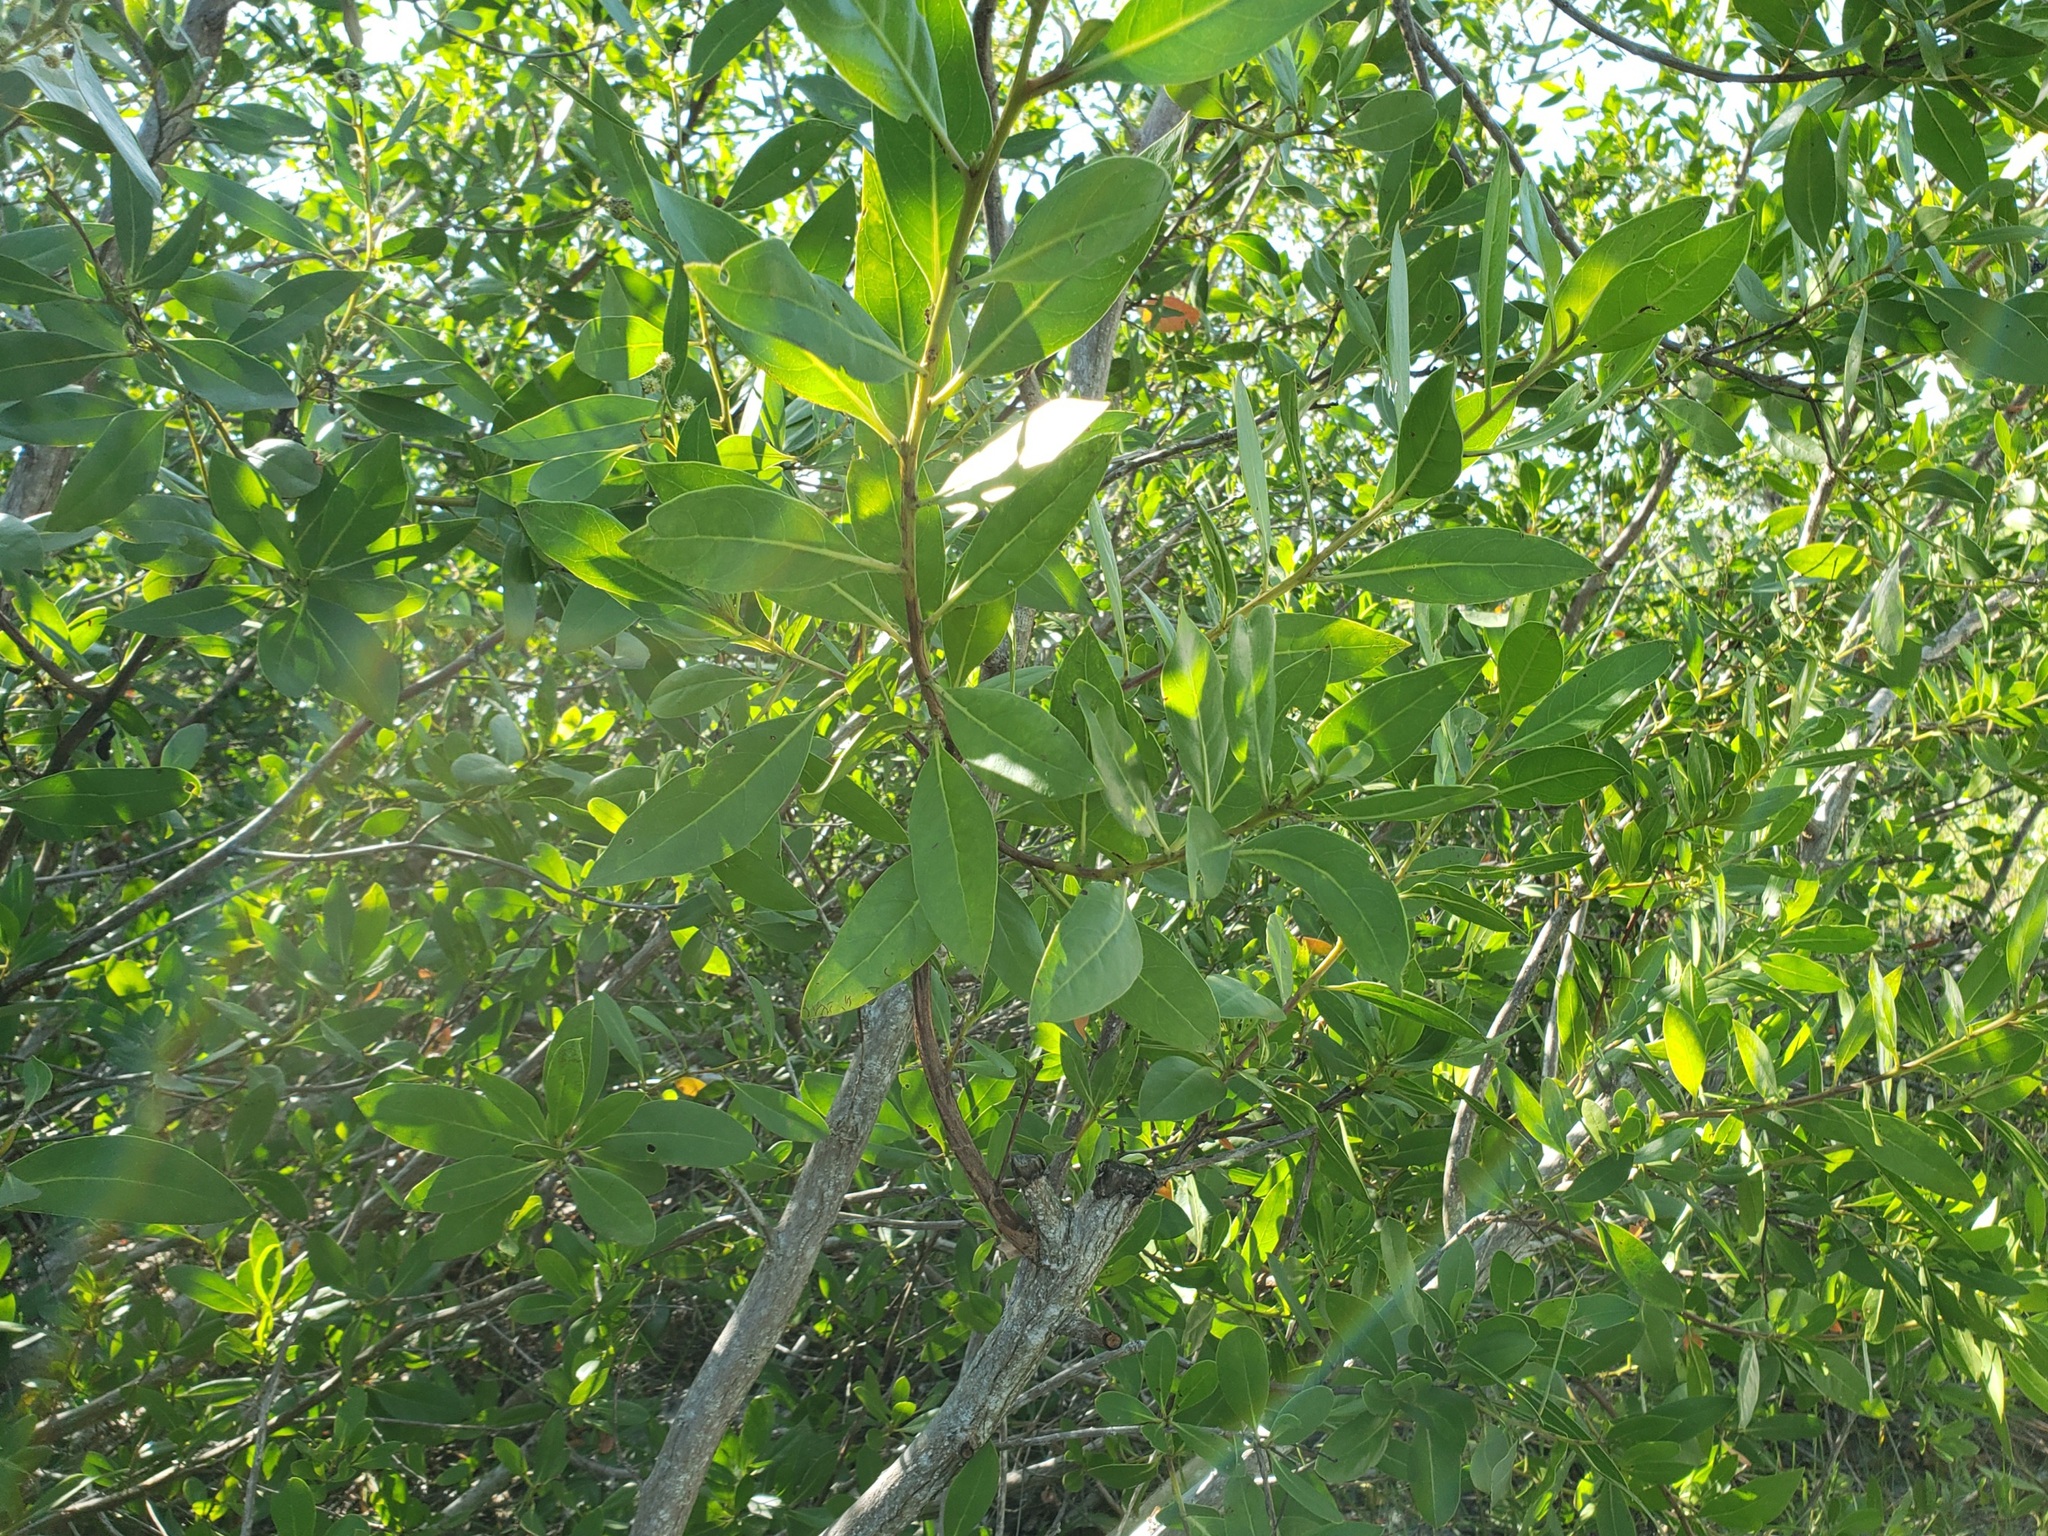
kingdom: Plantae
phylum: Tracheophyta
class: Magnoliopsida
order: Myrtales
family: Combretaceae
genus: Conocarpus
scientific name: Conocarpus erectus
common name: Button mangrove
